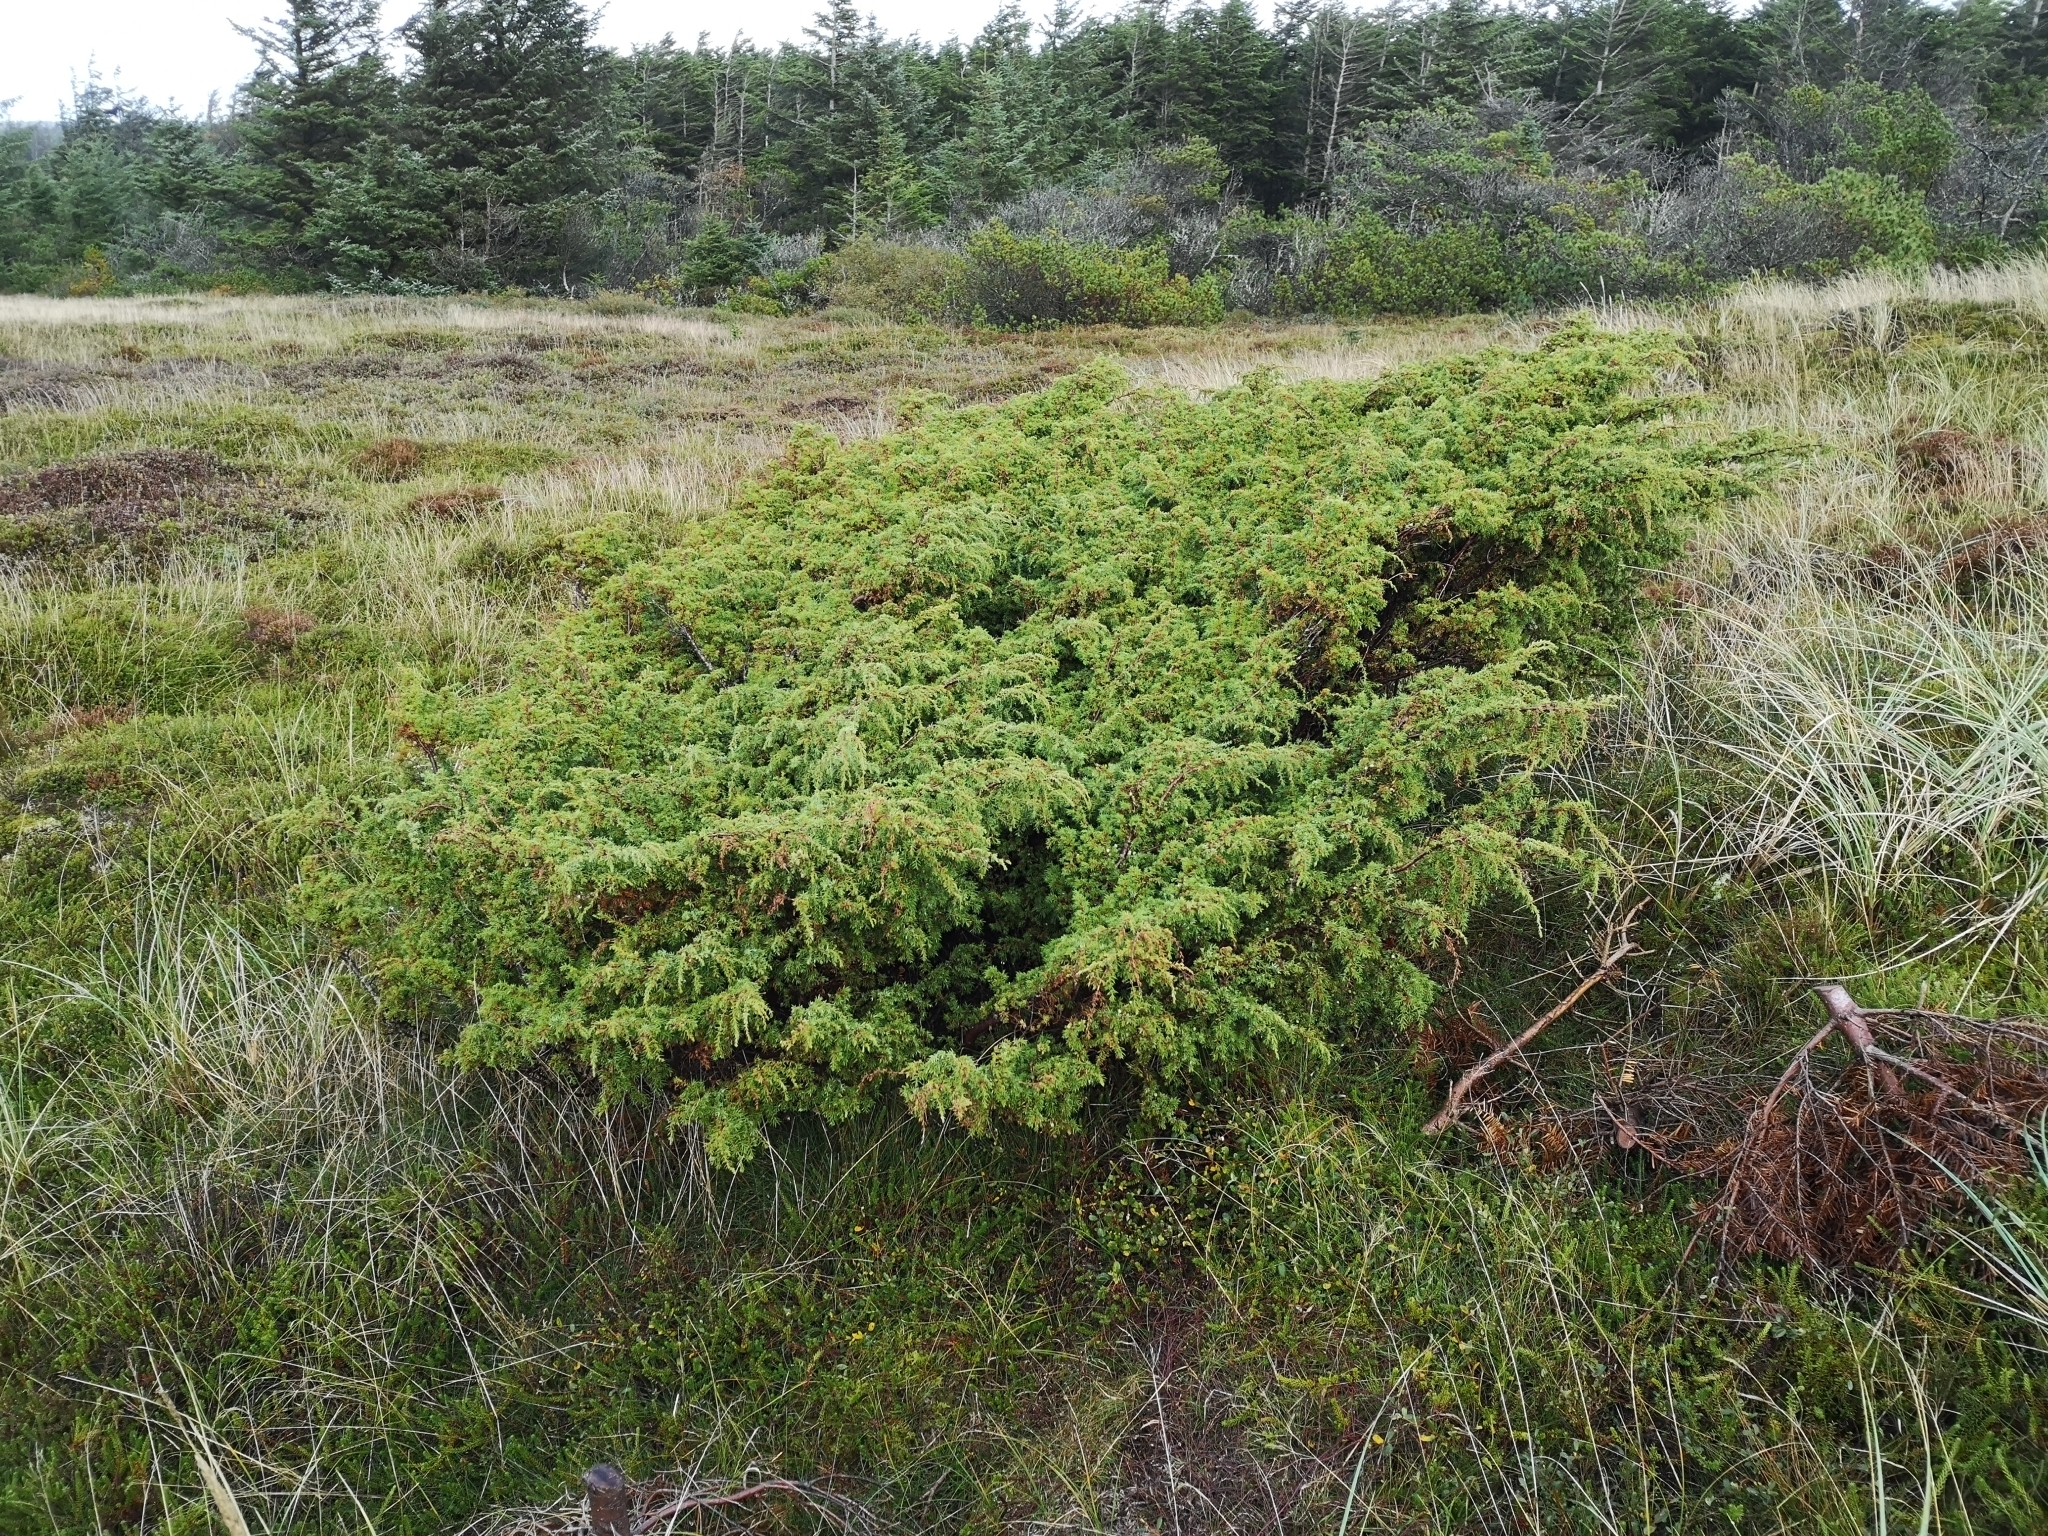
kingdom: Plantae
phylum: Tracheophyta
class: Pinopsida
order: Pinales
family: Cupressaceae
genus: Juniperus
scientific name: Juniperus communis
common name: Common juniper
